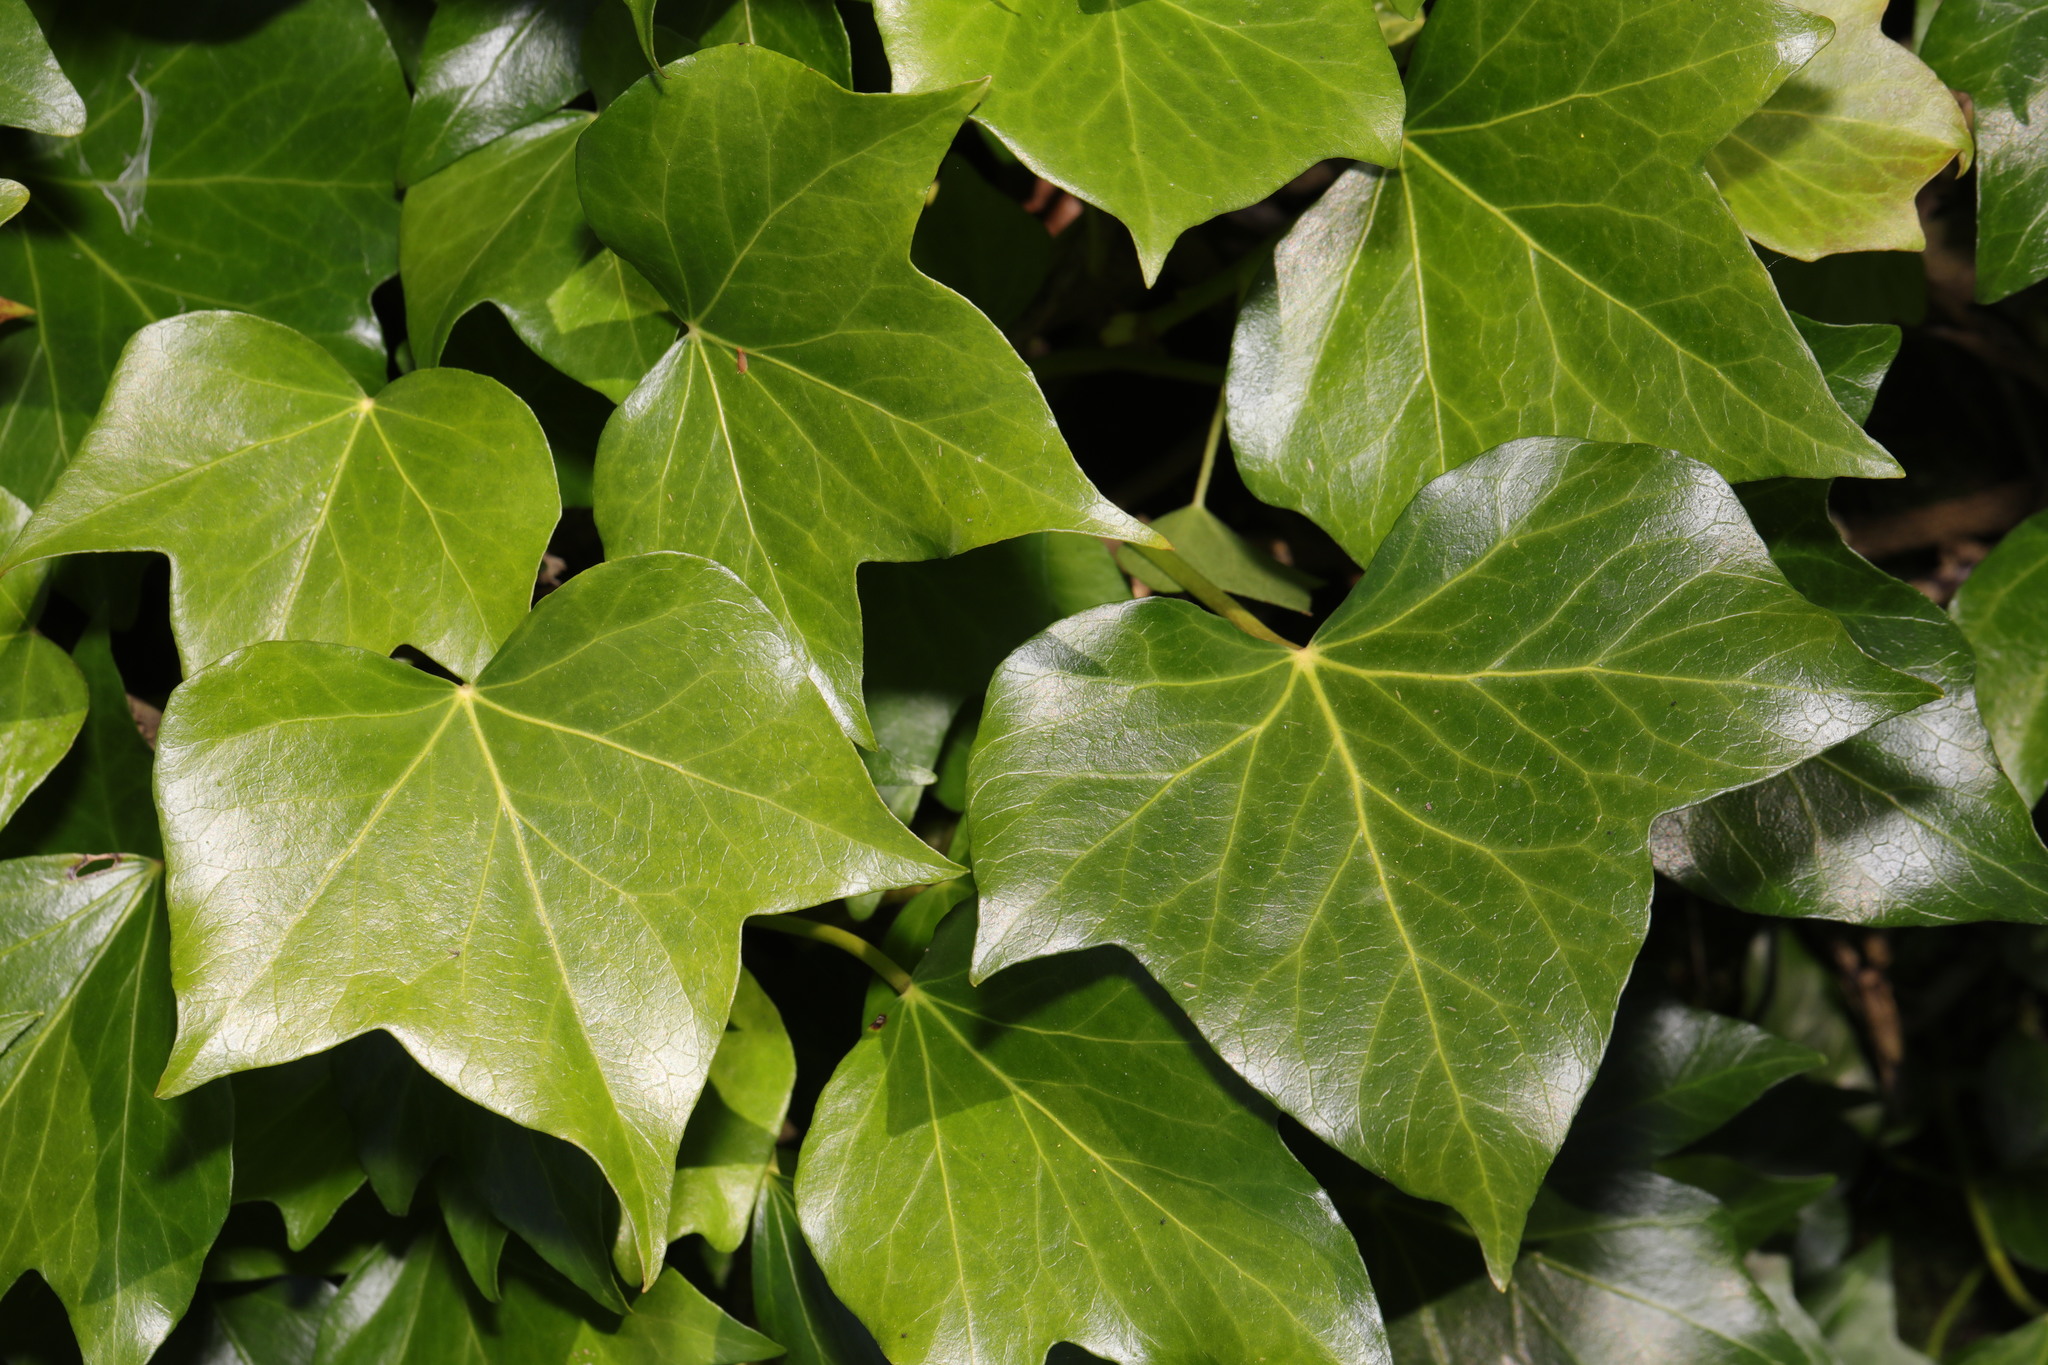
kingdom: Plantae
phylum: Tracheophyta
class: Magnoliopsida
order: Apiales
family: Araliaceae
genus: Hedera
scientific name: Hedera helix
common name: Ivy
